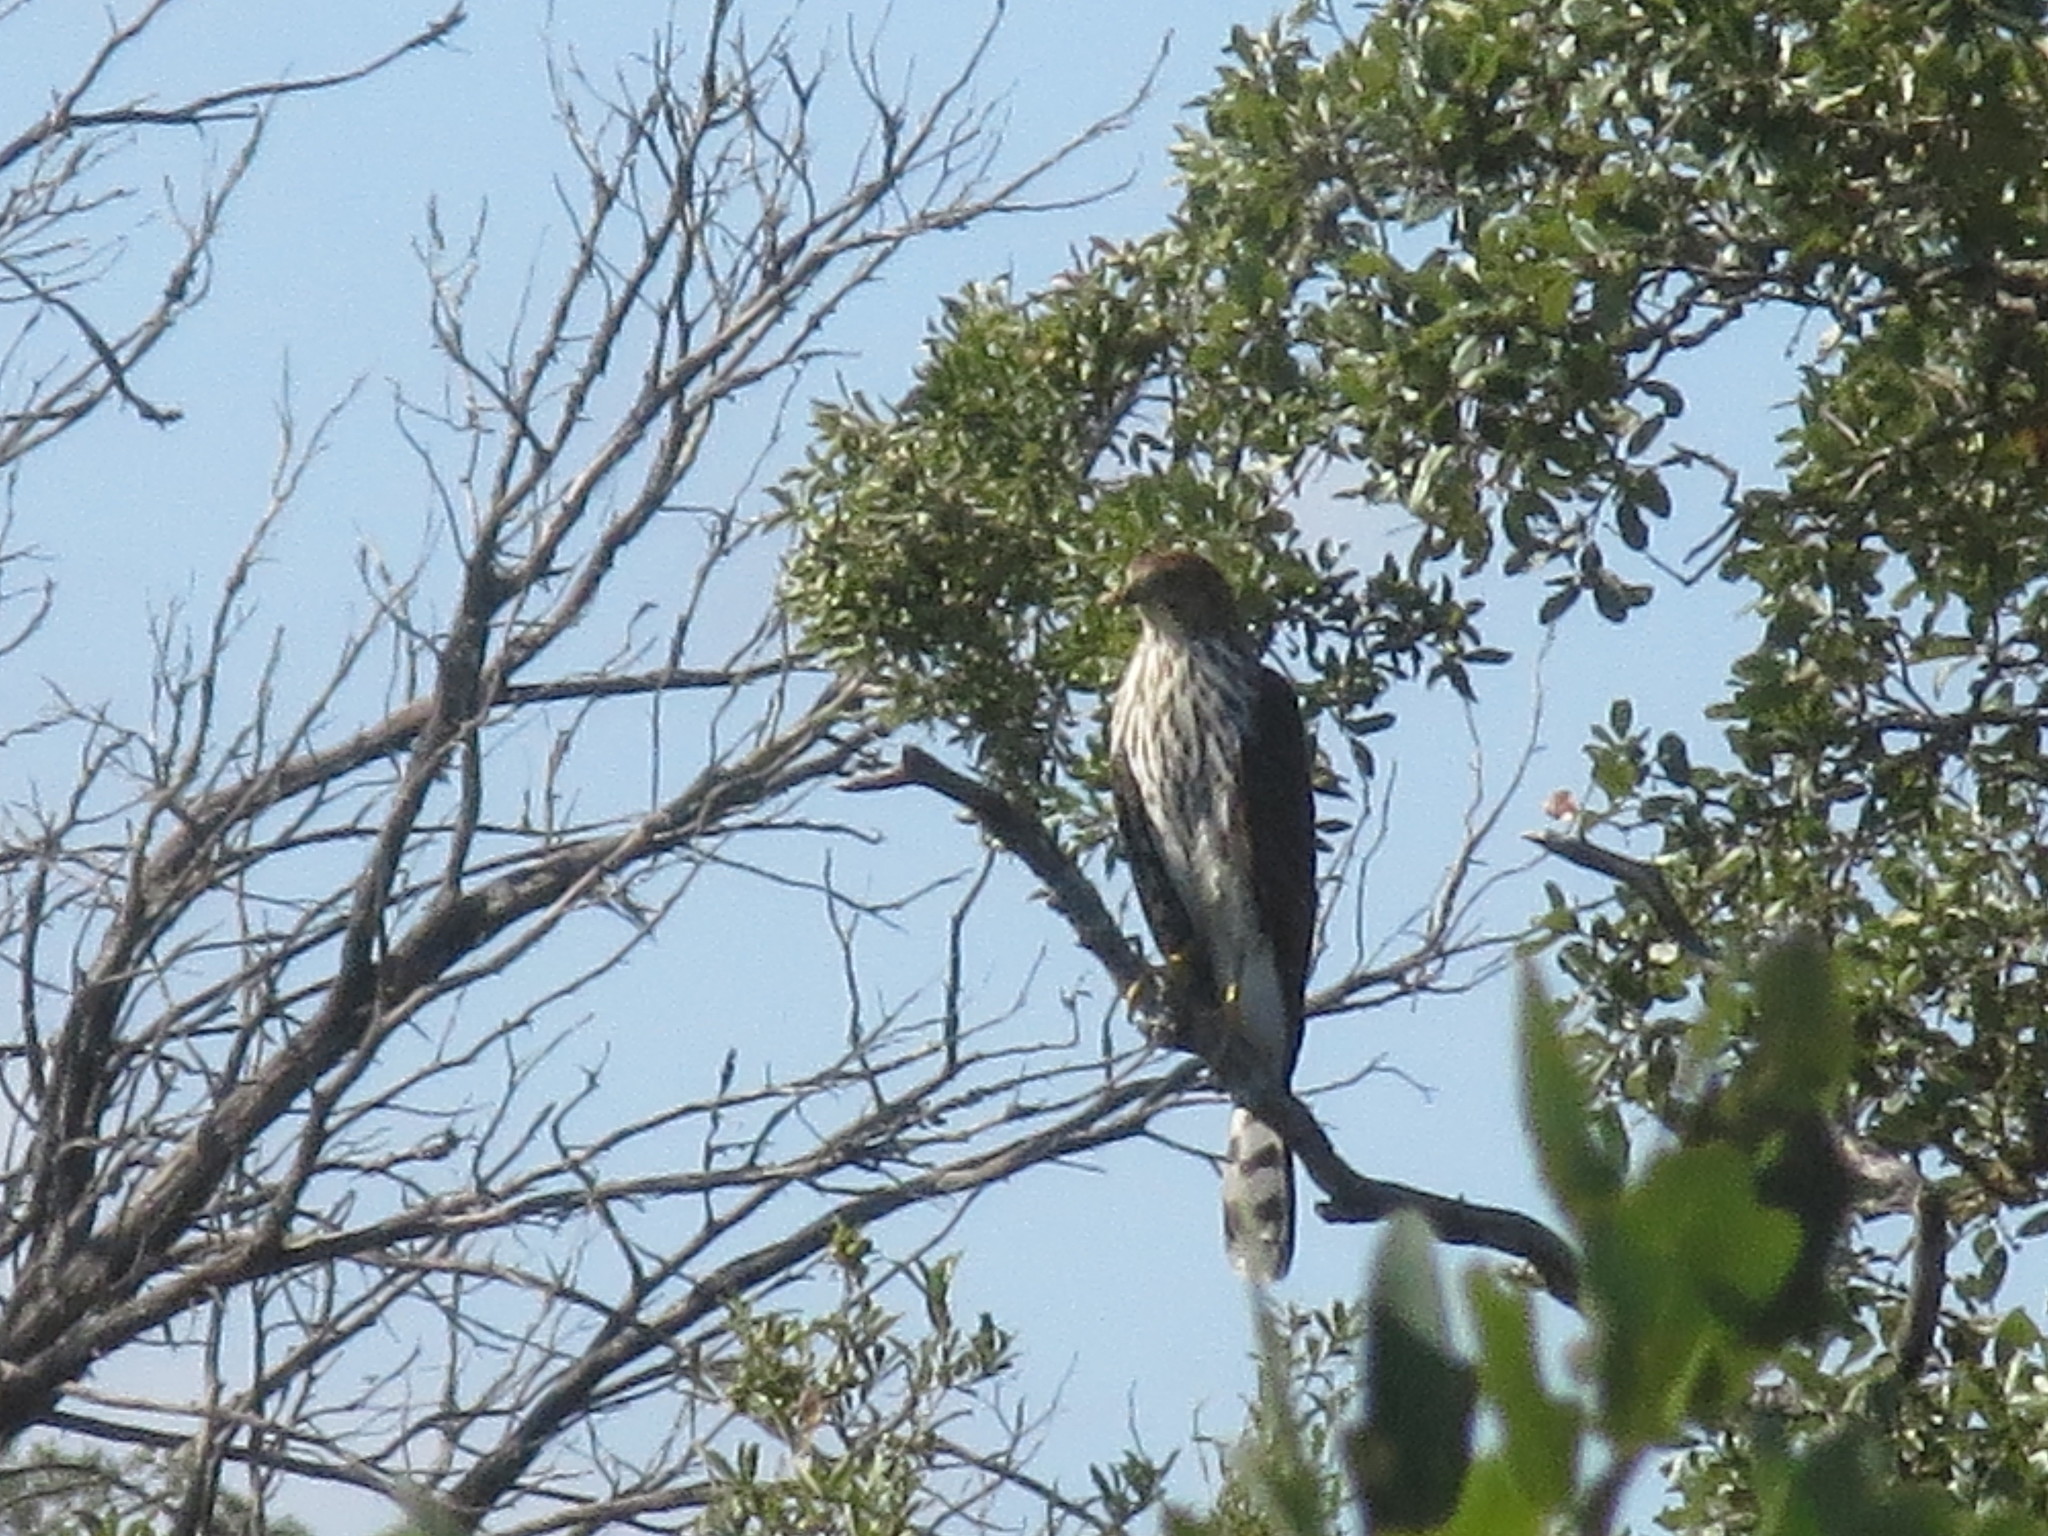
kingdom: Animalia
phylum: Chordata
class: Aves
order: Accipitriformes
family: Accipitridae
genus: Accipiter
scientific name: Accipiter cooperii
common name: Cooper's hawk
